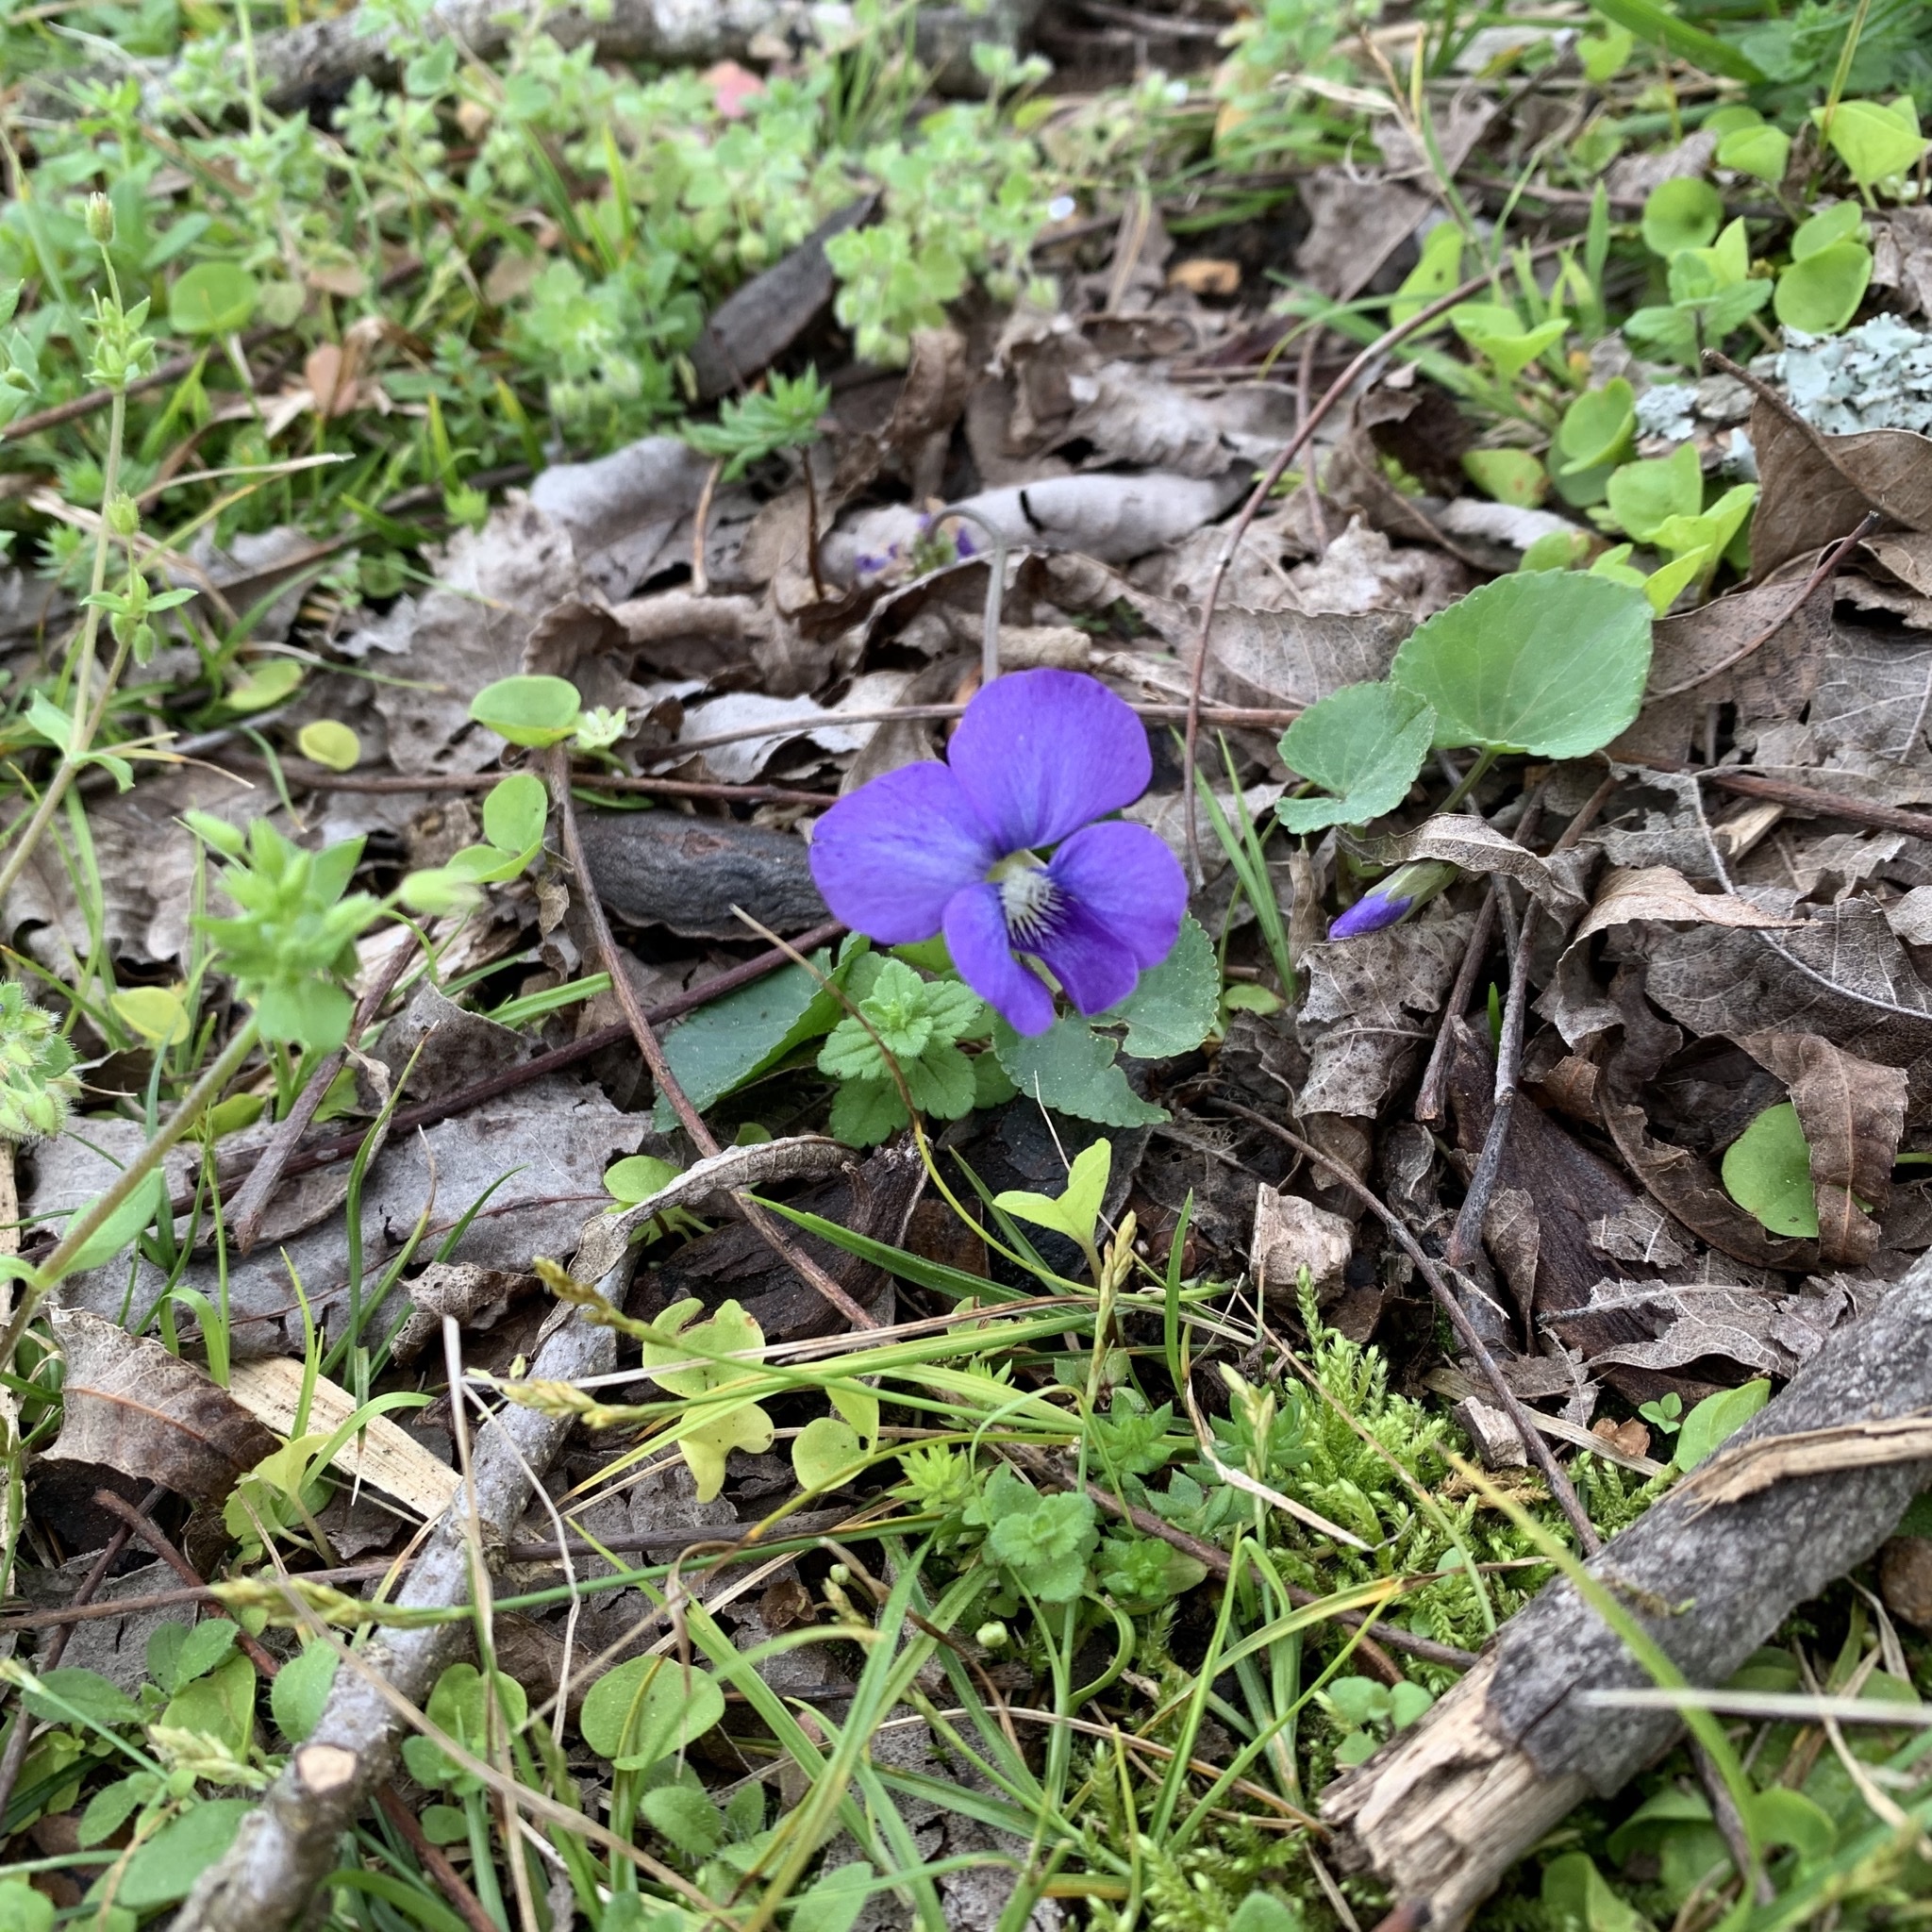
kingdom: Plantae
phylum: Tracheophyta
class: Magnoliopsida
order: Malpighiales
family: Violaceae
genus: Viola
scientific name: Viola sororia
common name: Dooryard violet
